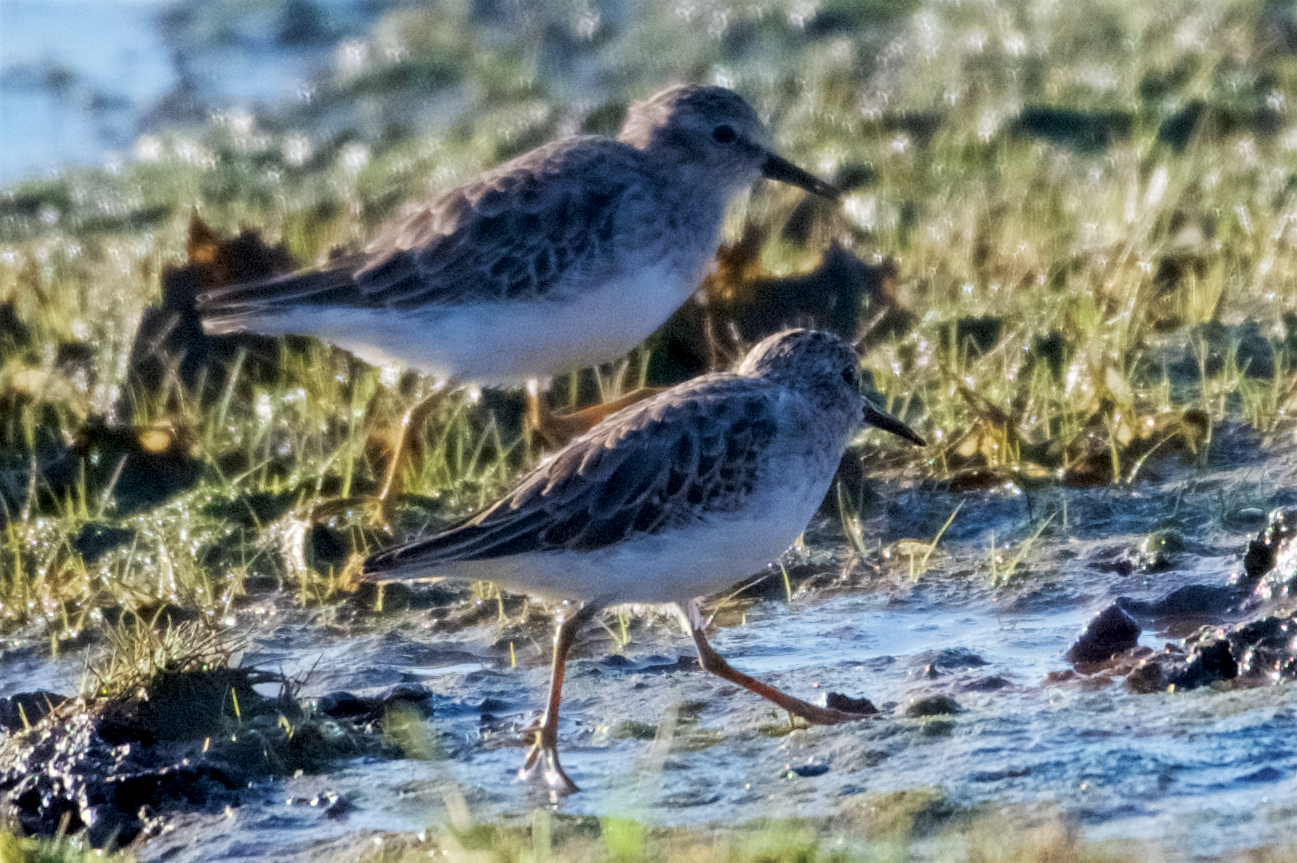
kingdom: Animalia
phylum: Chordata
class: Aves
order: Charadriiformes
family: Scolopacidae
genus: Calidris
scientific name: Calidris minutilla
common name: Least sandpiper
